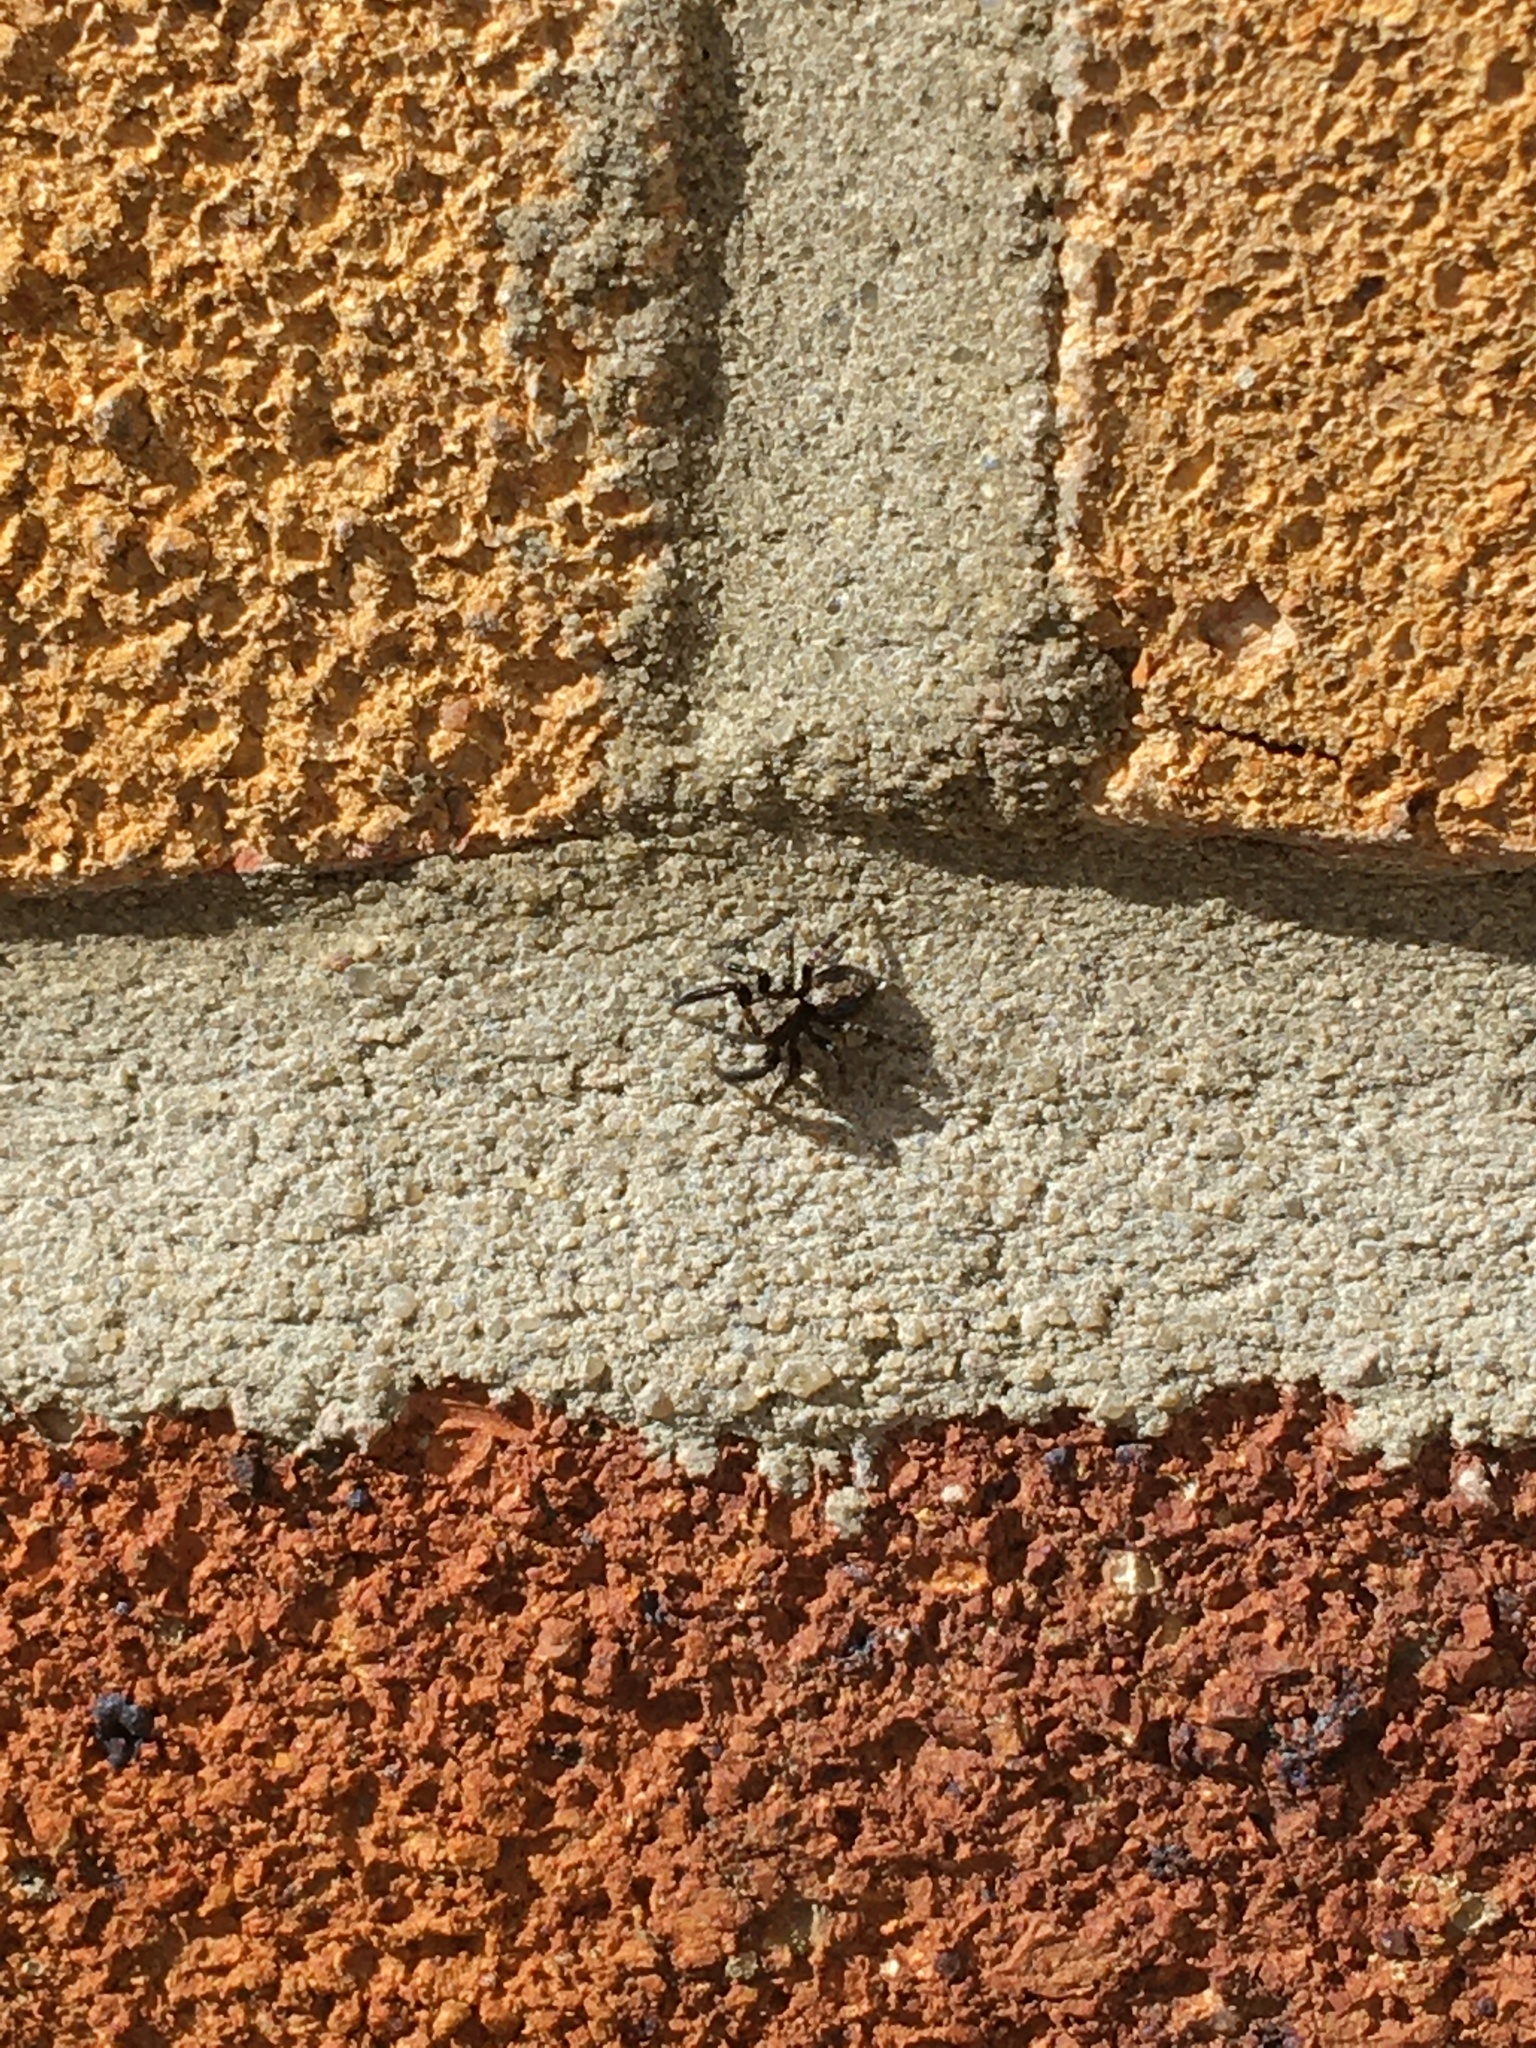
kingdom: Animalia
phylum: Arthropoda
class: Arachnida
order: Araneae
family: Salticidae
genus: Pseudeuophrys
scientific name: Pseudeuophrys lanigera
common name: Jumping spider
